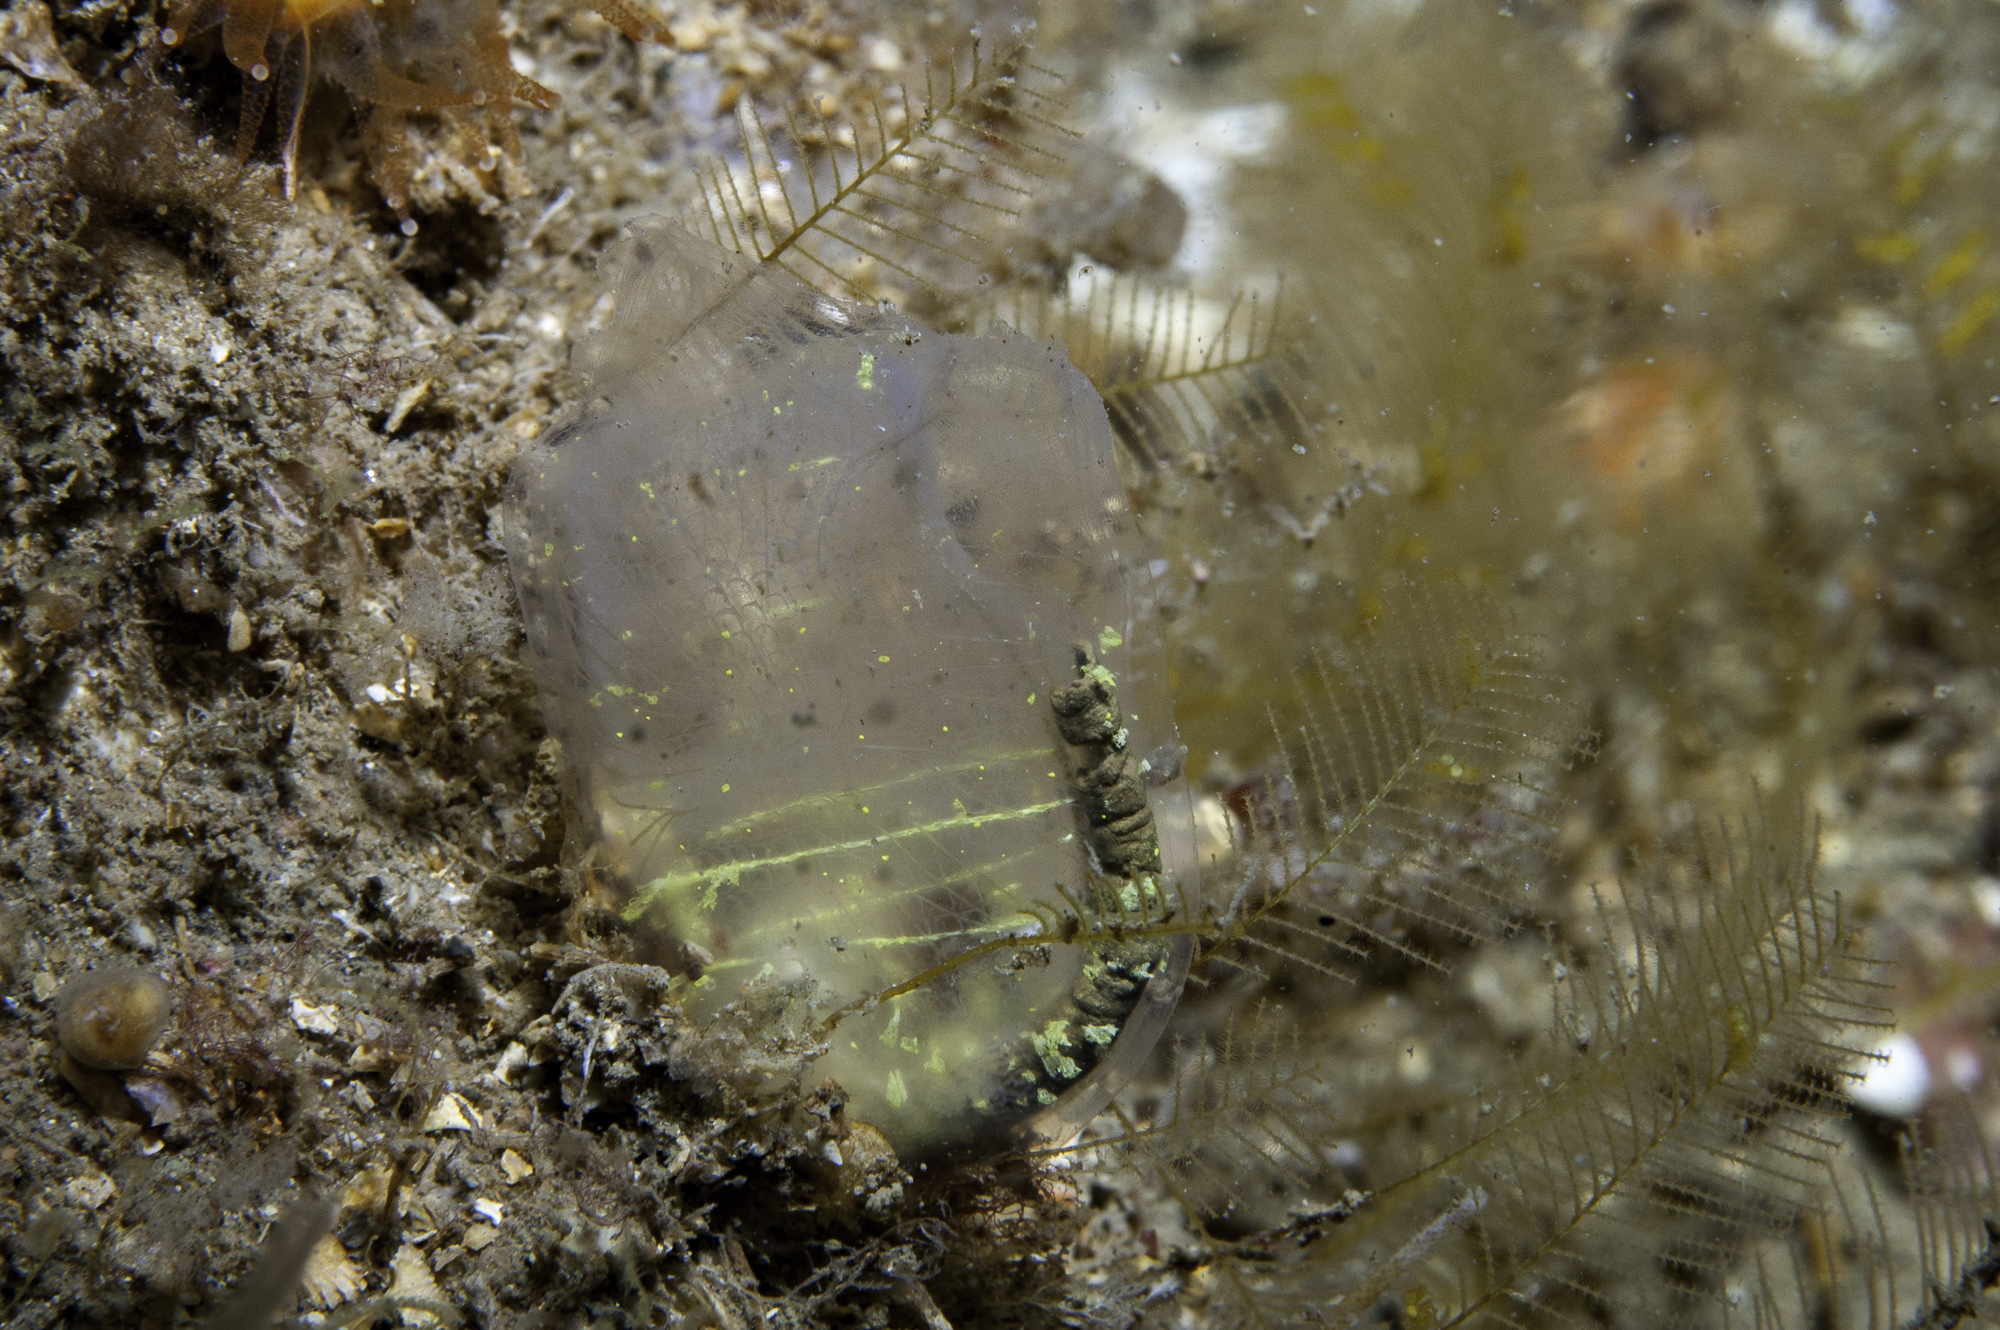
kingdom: Animalia
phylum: Chordata
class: Ascidiacea
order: Phlebobranchia
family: Corellidae
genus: Corella
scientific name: Corella parallelogramma
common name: Gas mantle ascidian
